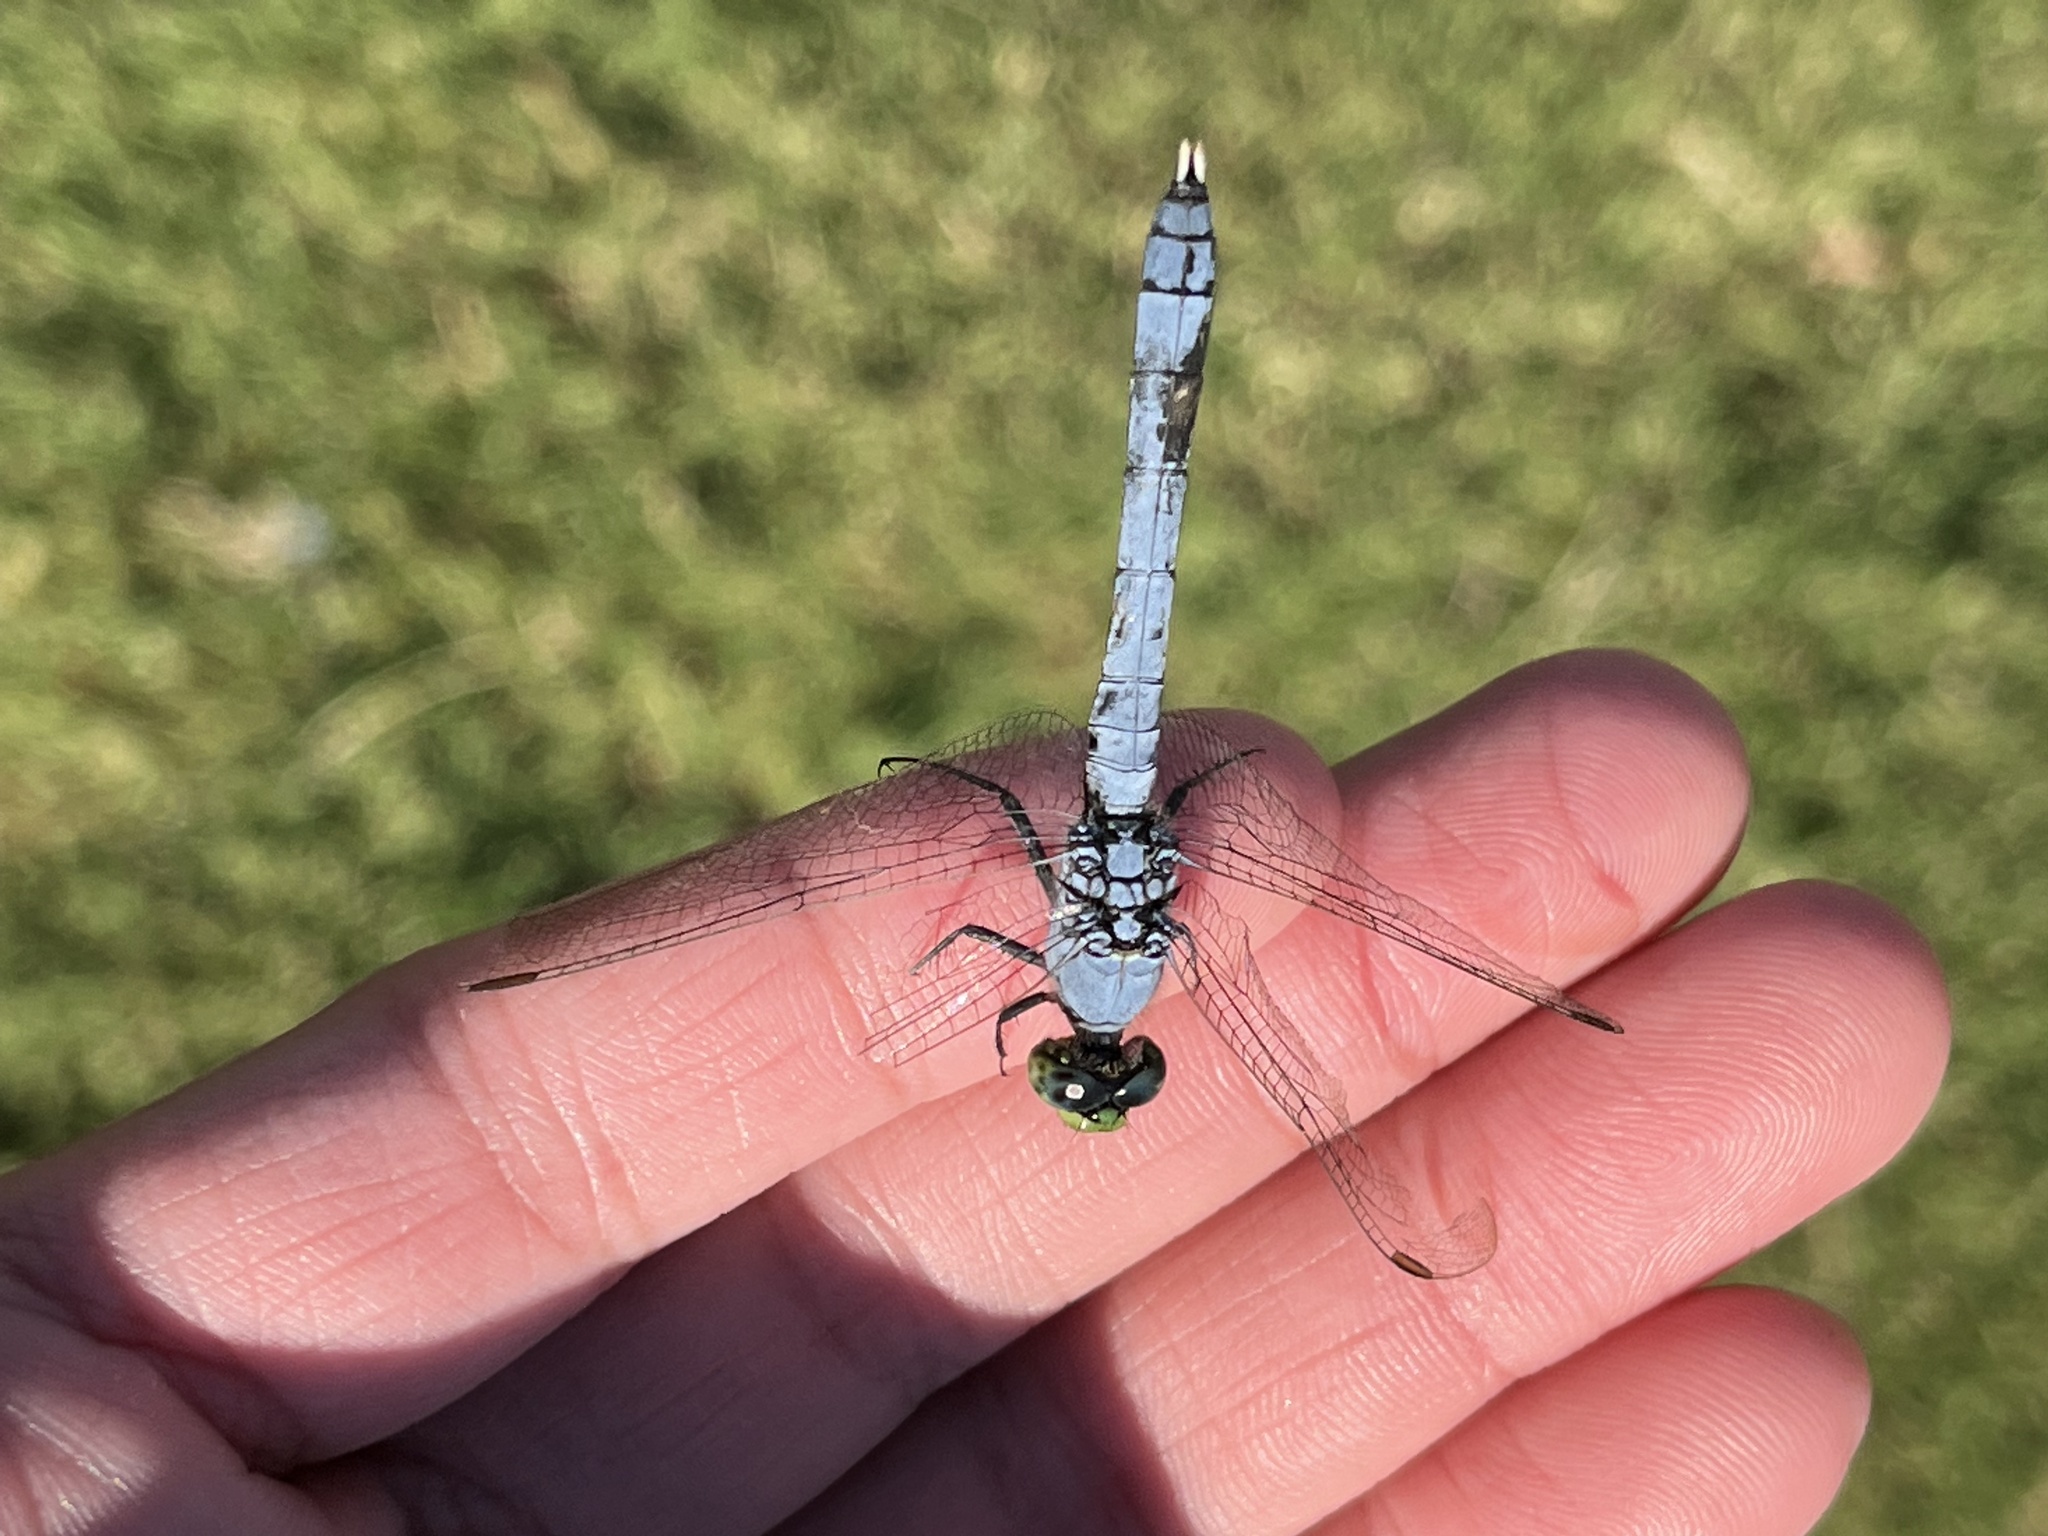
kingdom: Animalia
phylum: Arthropoda
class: Insecta
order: Odonata
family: Libellulidae
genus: Erythemis
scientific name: Erythemis simplicicollis
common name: Eastern pondhawk
